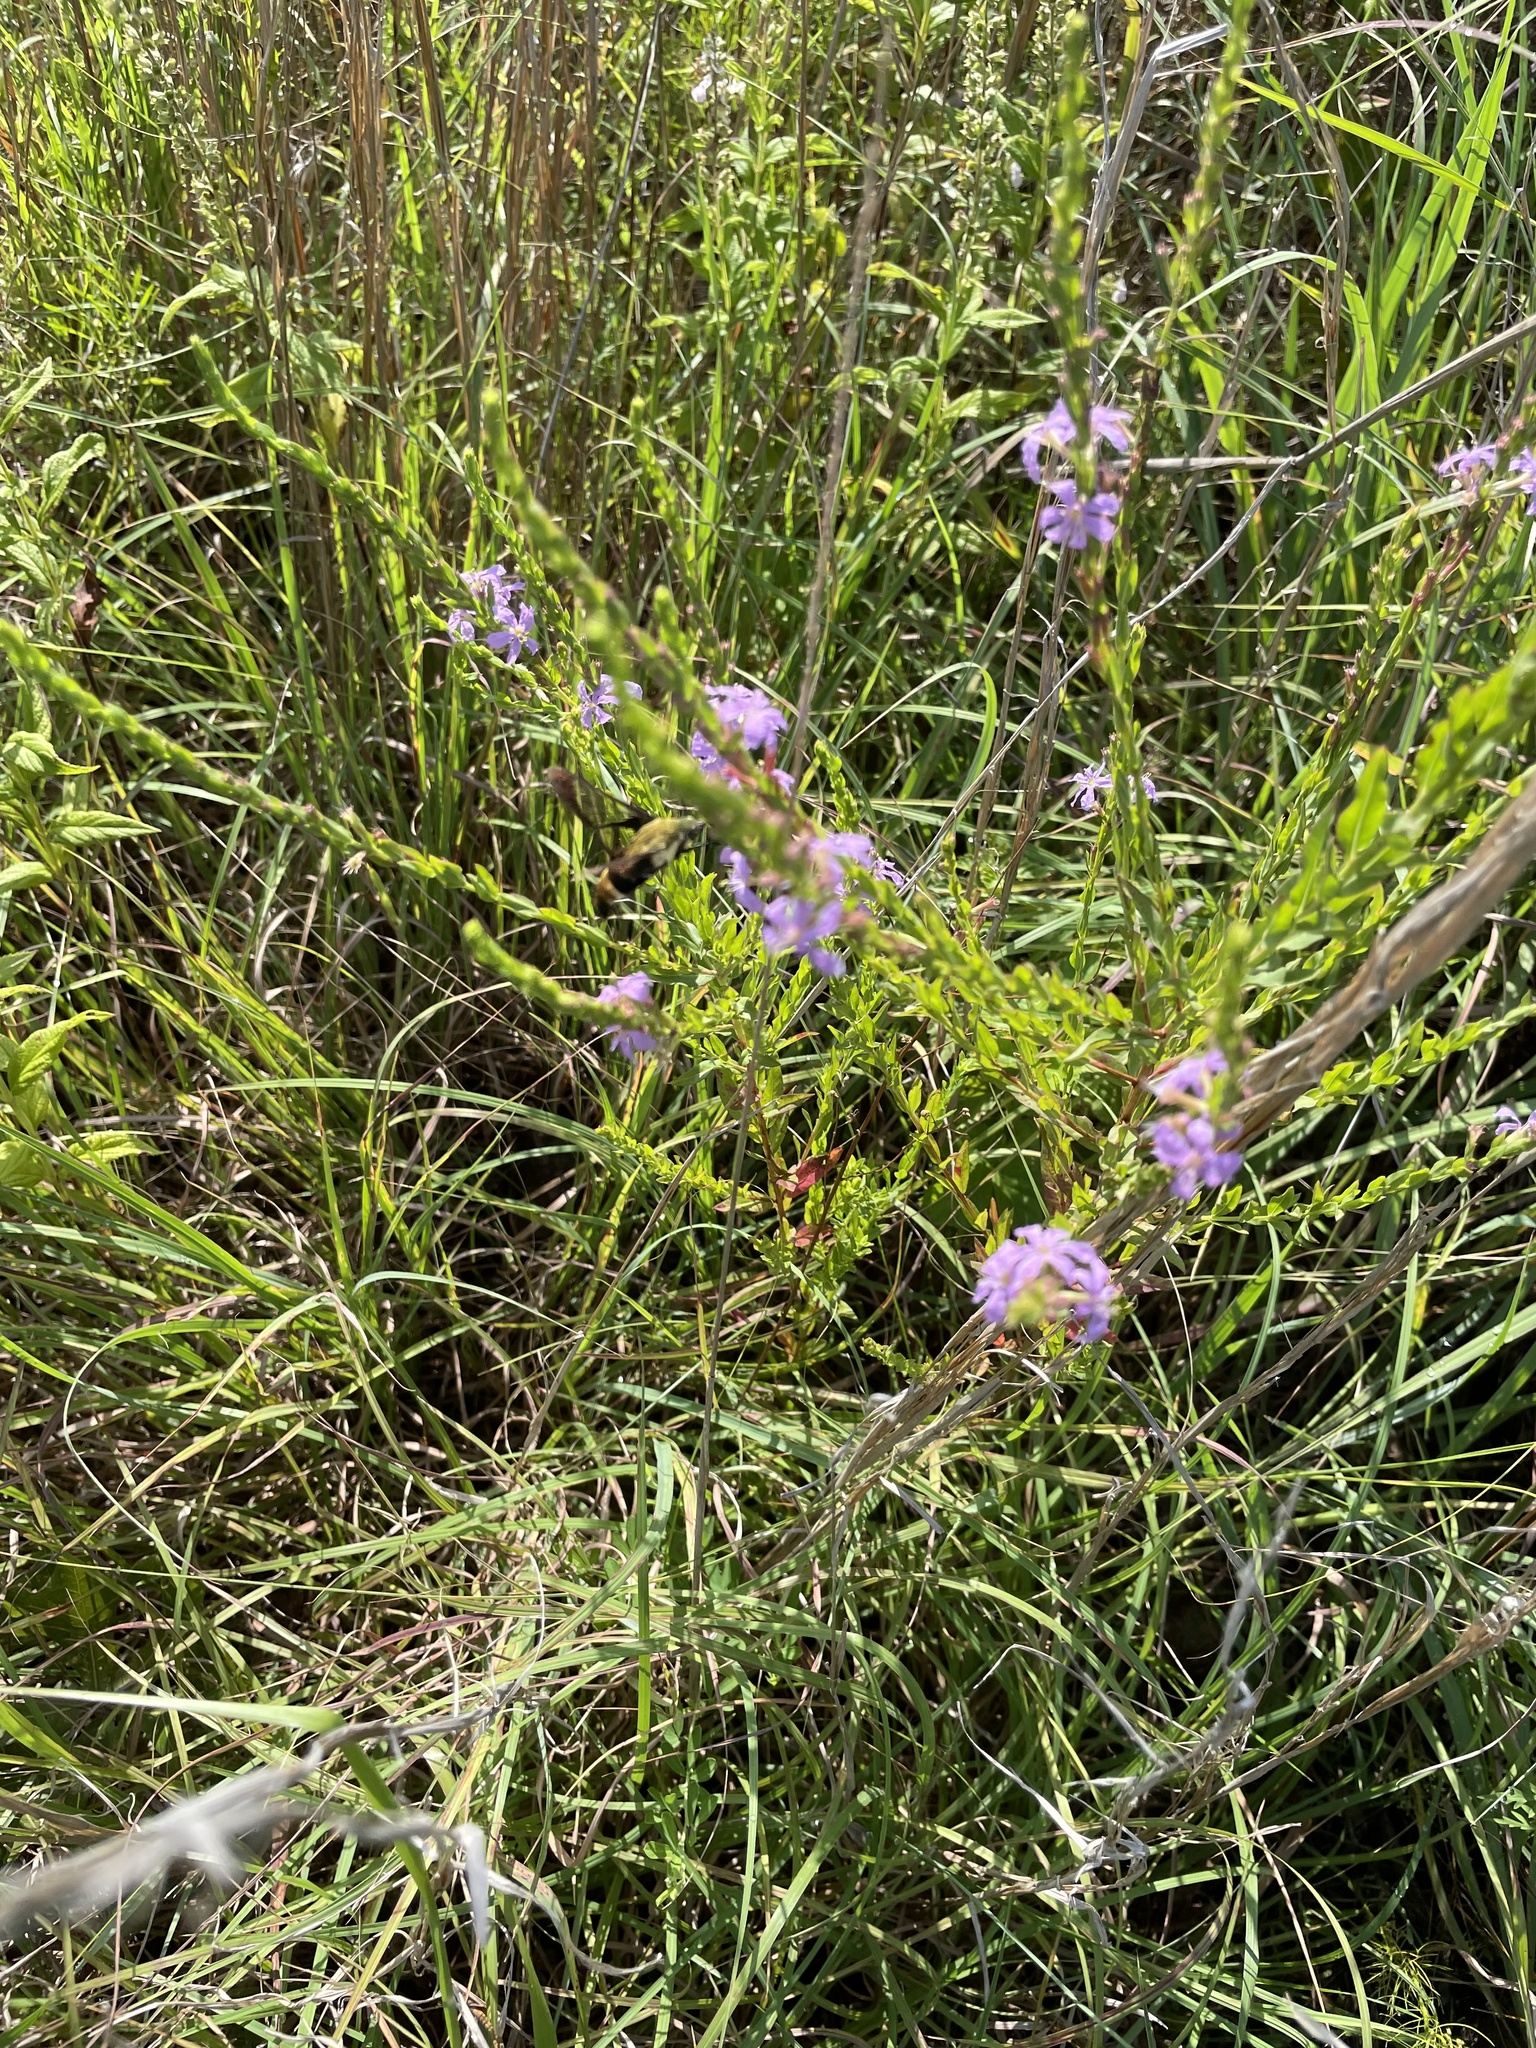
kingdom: Animalia
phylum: Arthropoda
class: Insecta
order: Lepidoptera
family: Sphingidae
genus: Hemaris
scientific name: Hemaris diffinis
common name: Bumblebee moth
